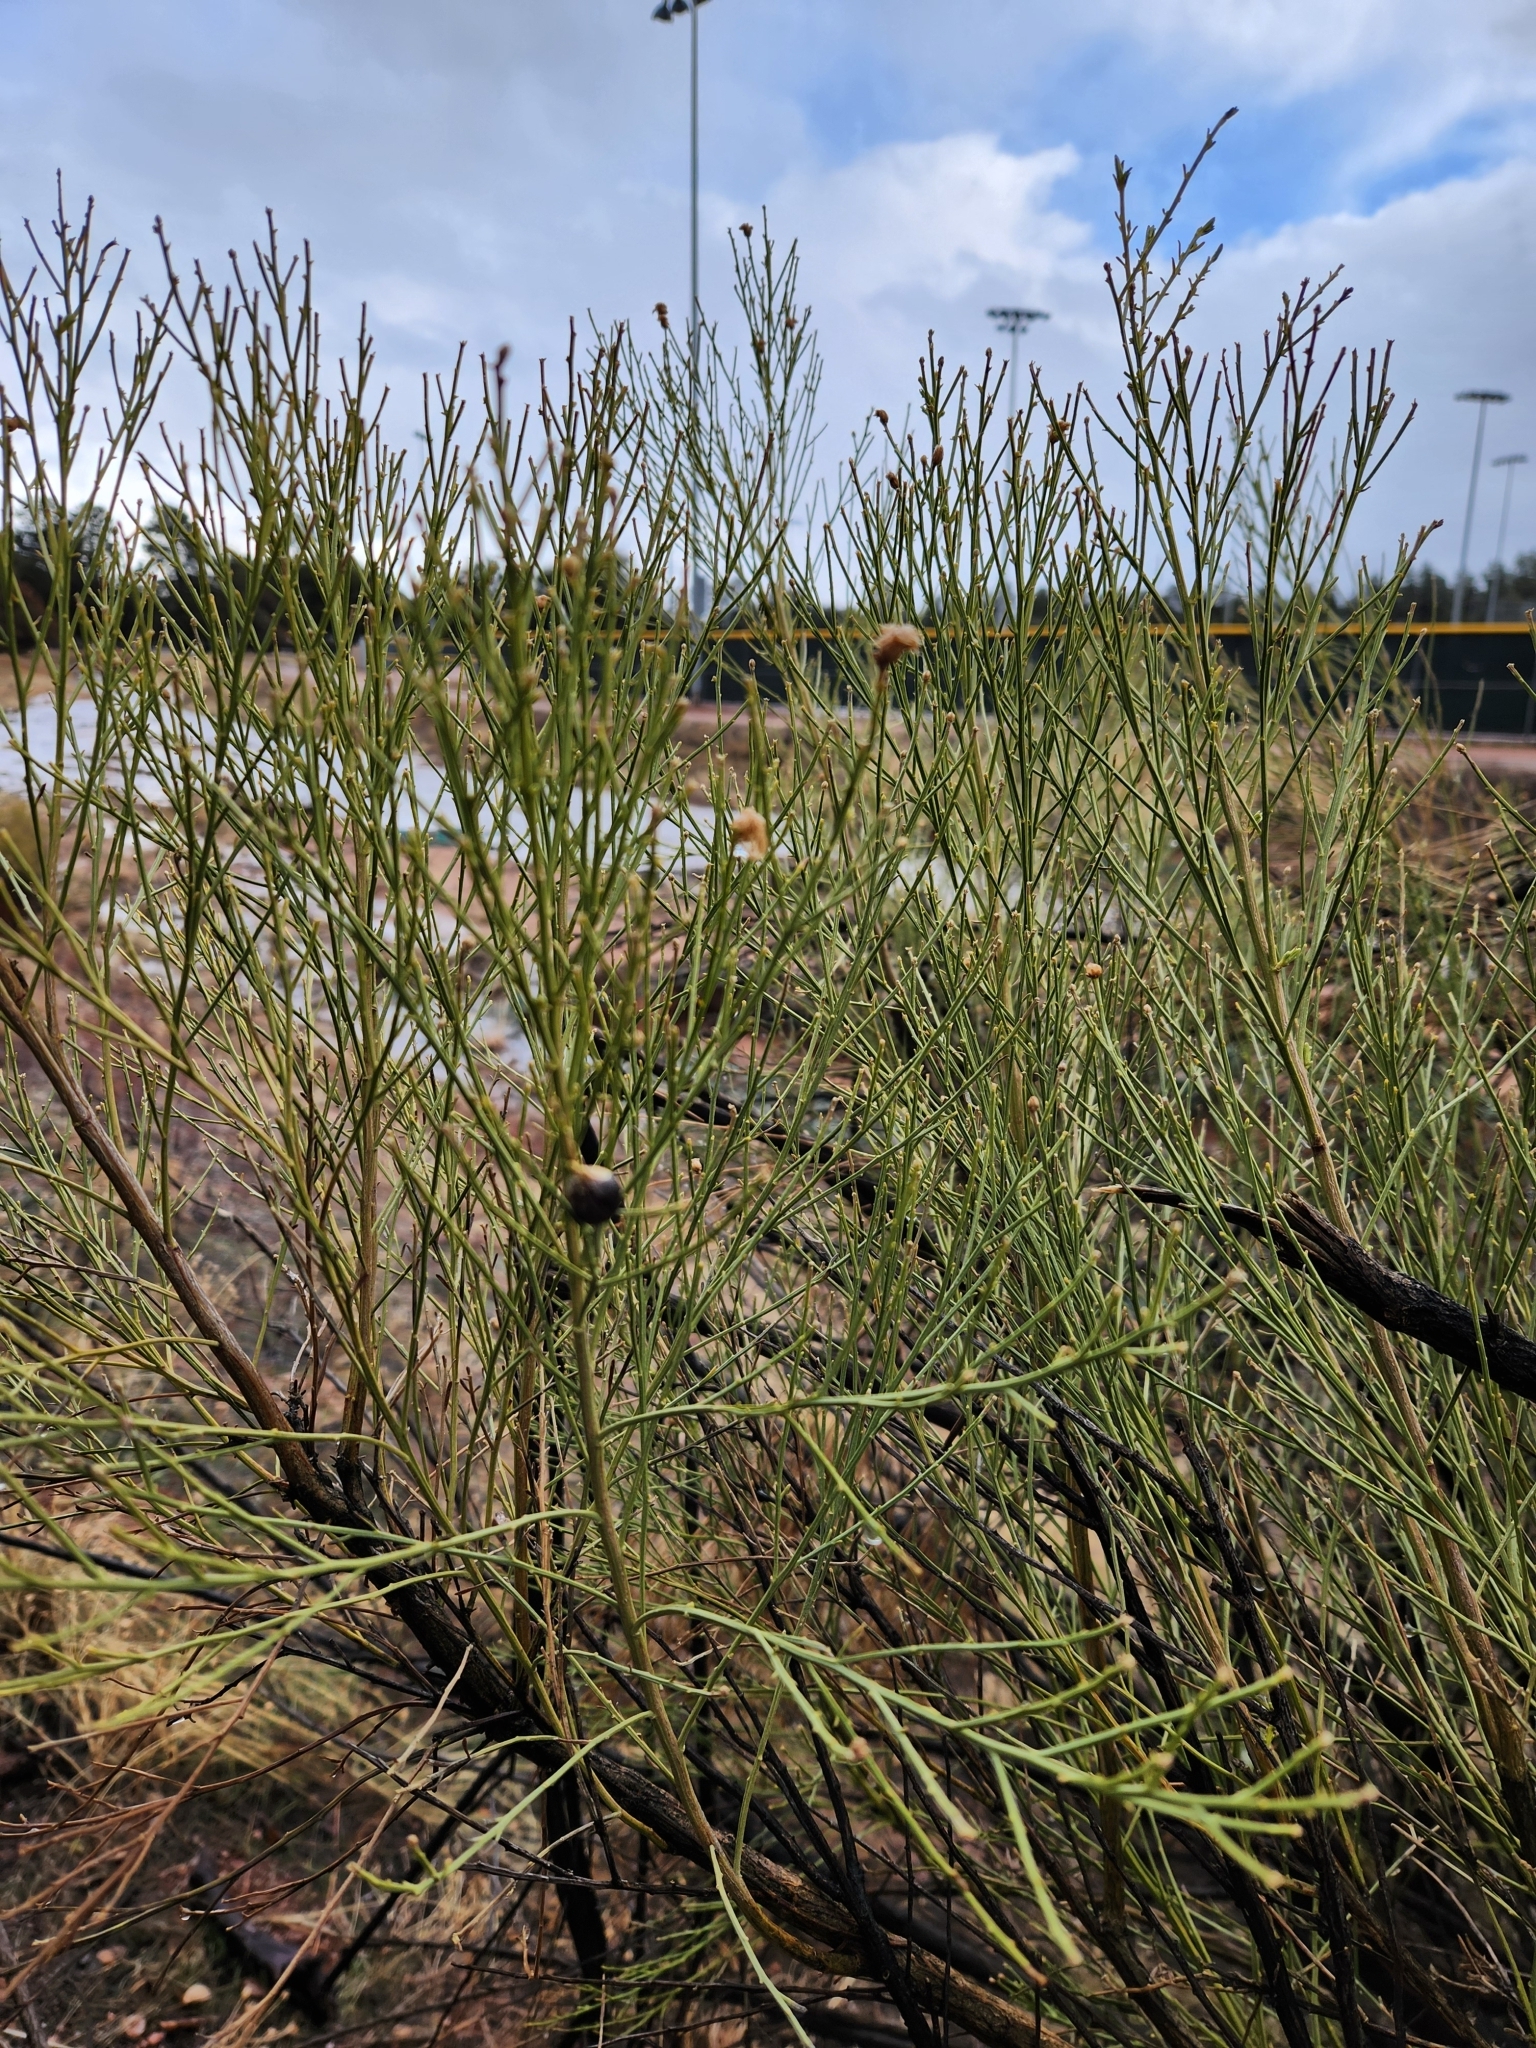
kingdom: Plantae
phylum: Tracheophyta
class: Magnoliopsida
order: Asterales
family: Asteraceae
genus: Baccharis
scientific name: Baccharis sarothroides
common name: Desert-broom
